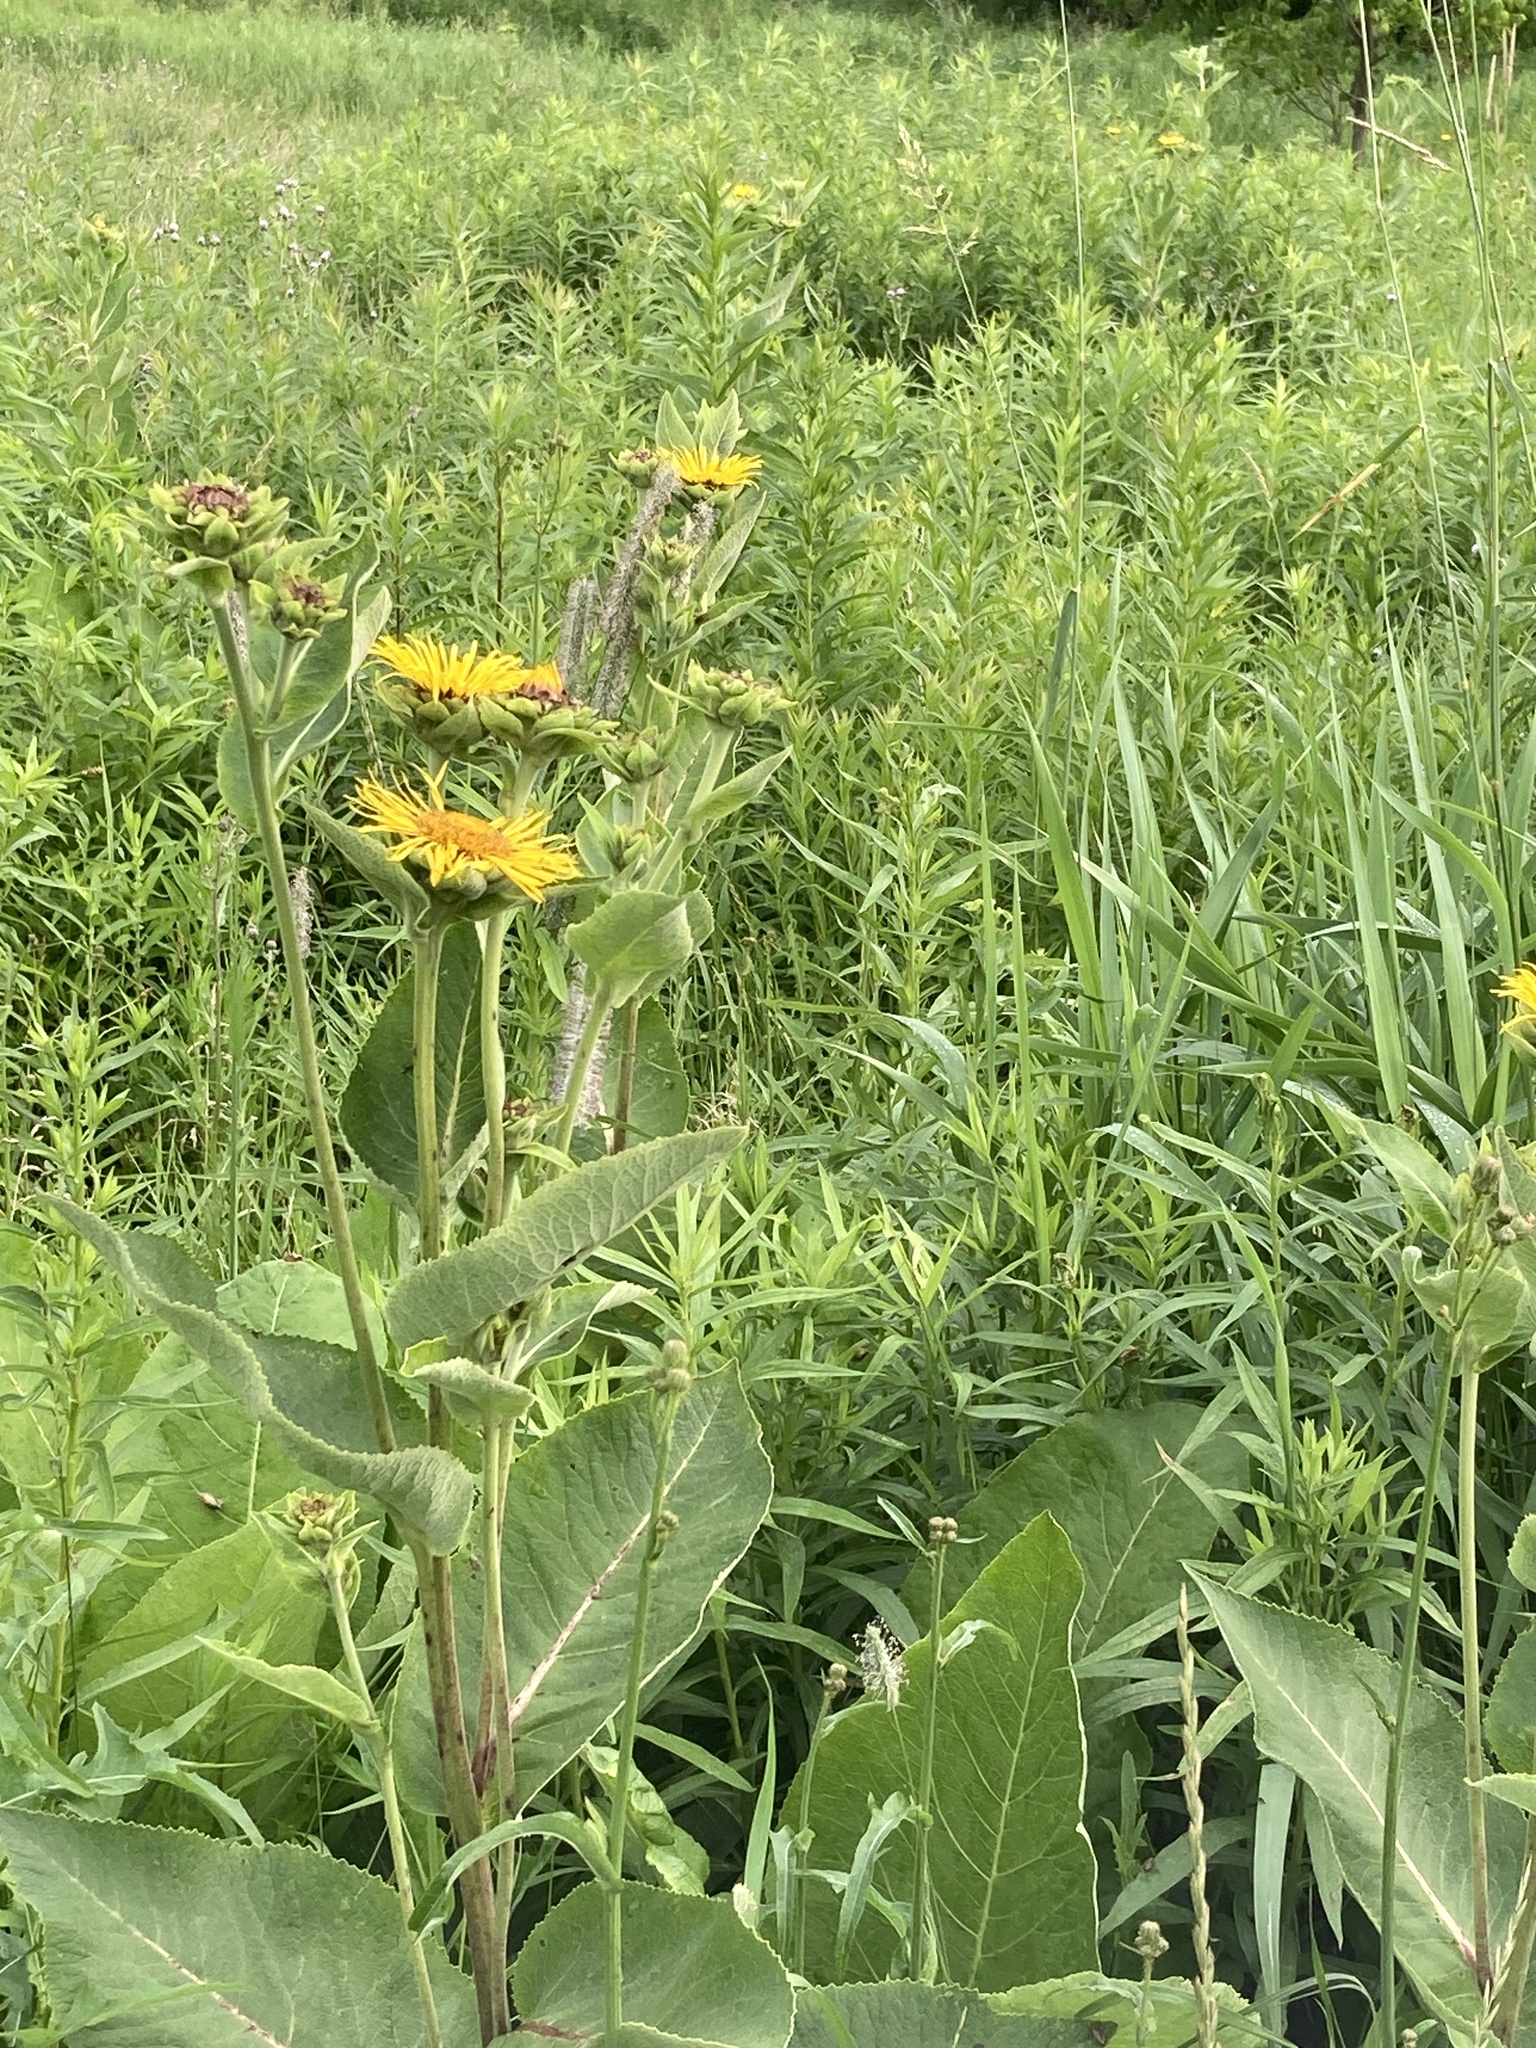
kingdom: Plantae
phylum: Tracheophyta
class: Magnoliopsida
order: Asterales
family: Asteraceae
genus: Inula
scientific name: Inula helenium
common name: Elecampane
